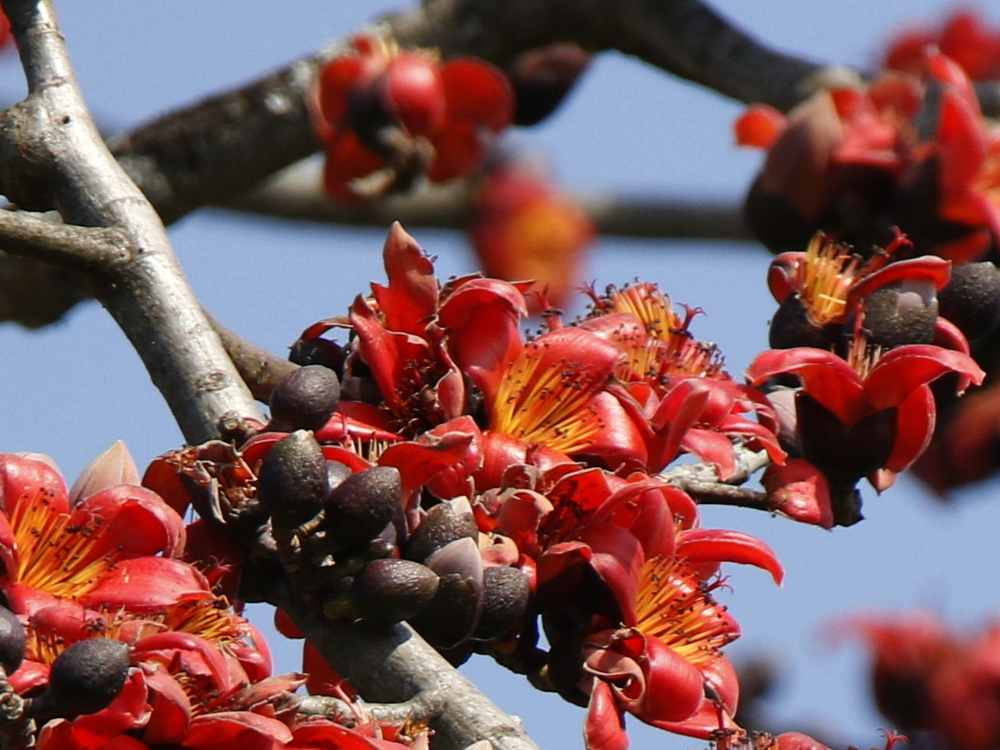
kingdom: Plantae
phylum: Tracheophyta
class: Magnoliopsida
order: Malvales
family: Malvaceae
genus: Bombax
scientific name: Bombax ceiba
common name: Northern-cottonwood
